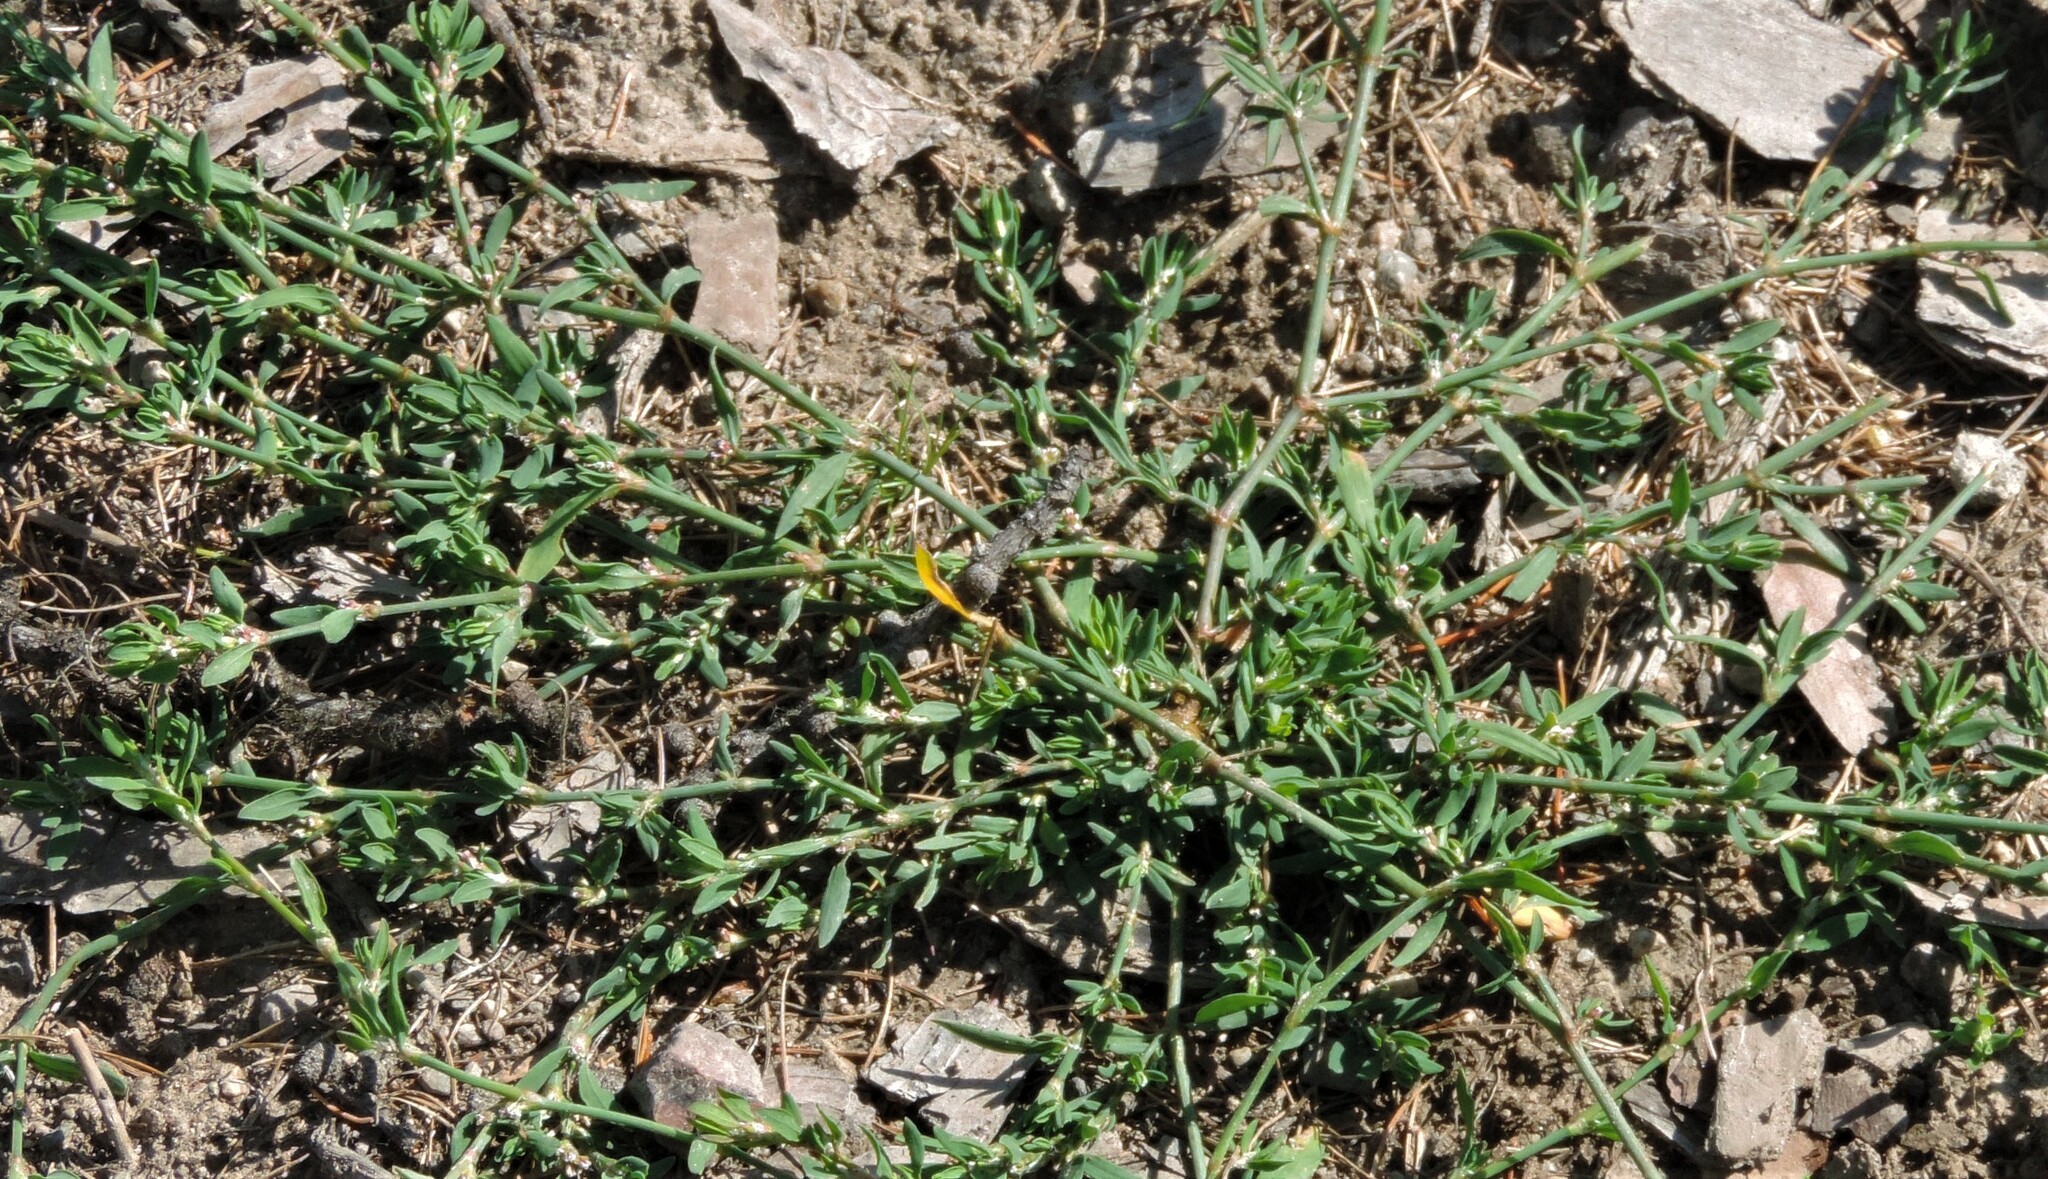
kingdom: Plantae
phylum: Tracheophyta
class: Magnoliopsida
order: Caryophyllales
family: Polygonaceae
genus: Polygonum
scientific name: Polygonum aviculare
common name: Prostrate knotweed
